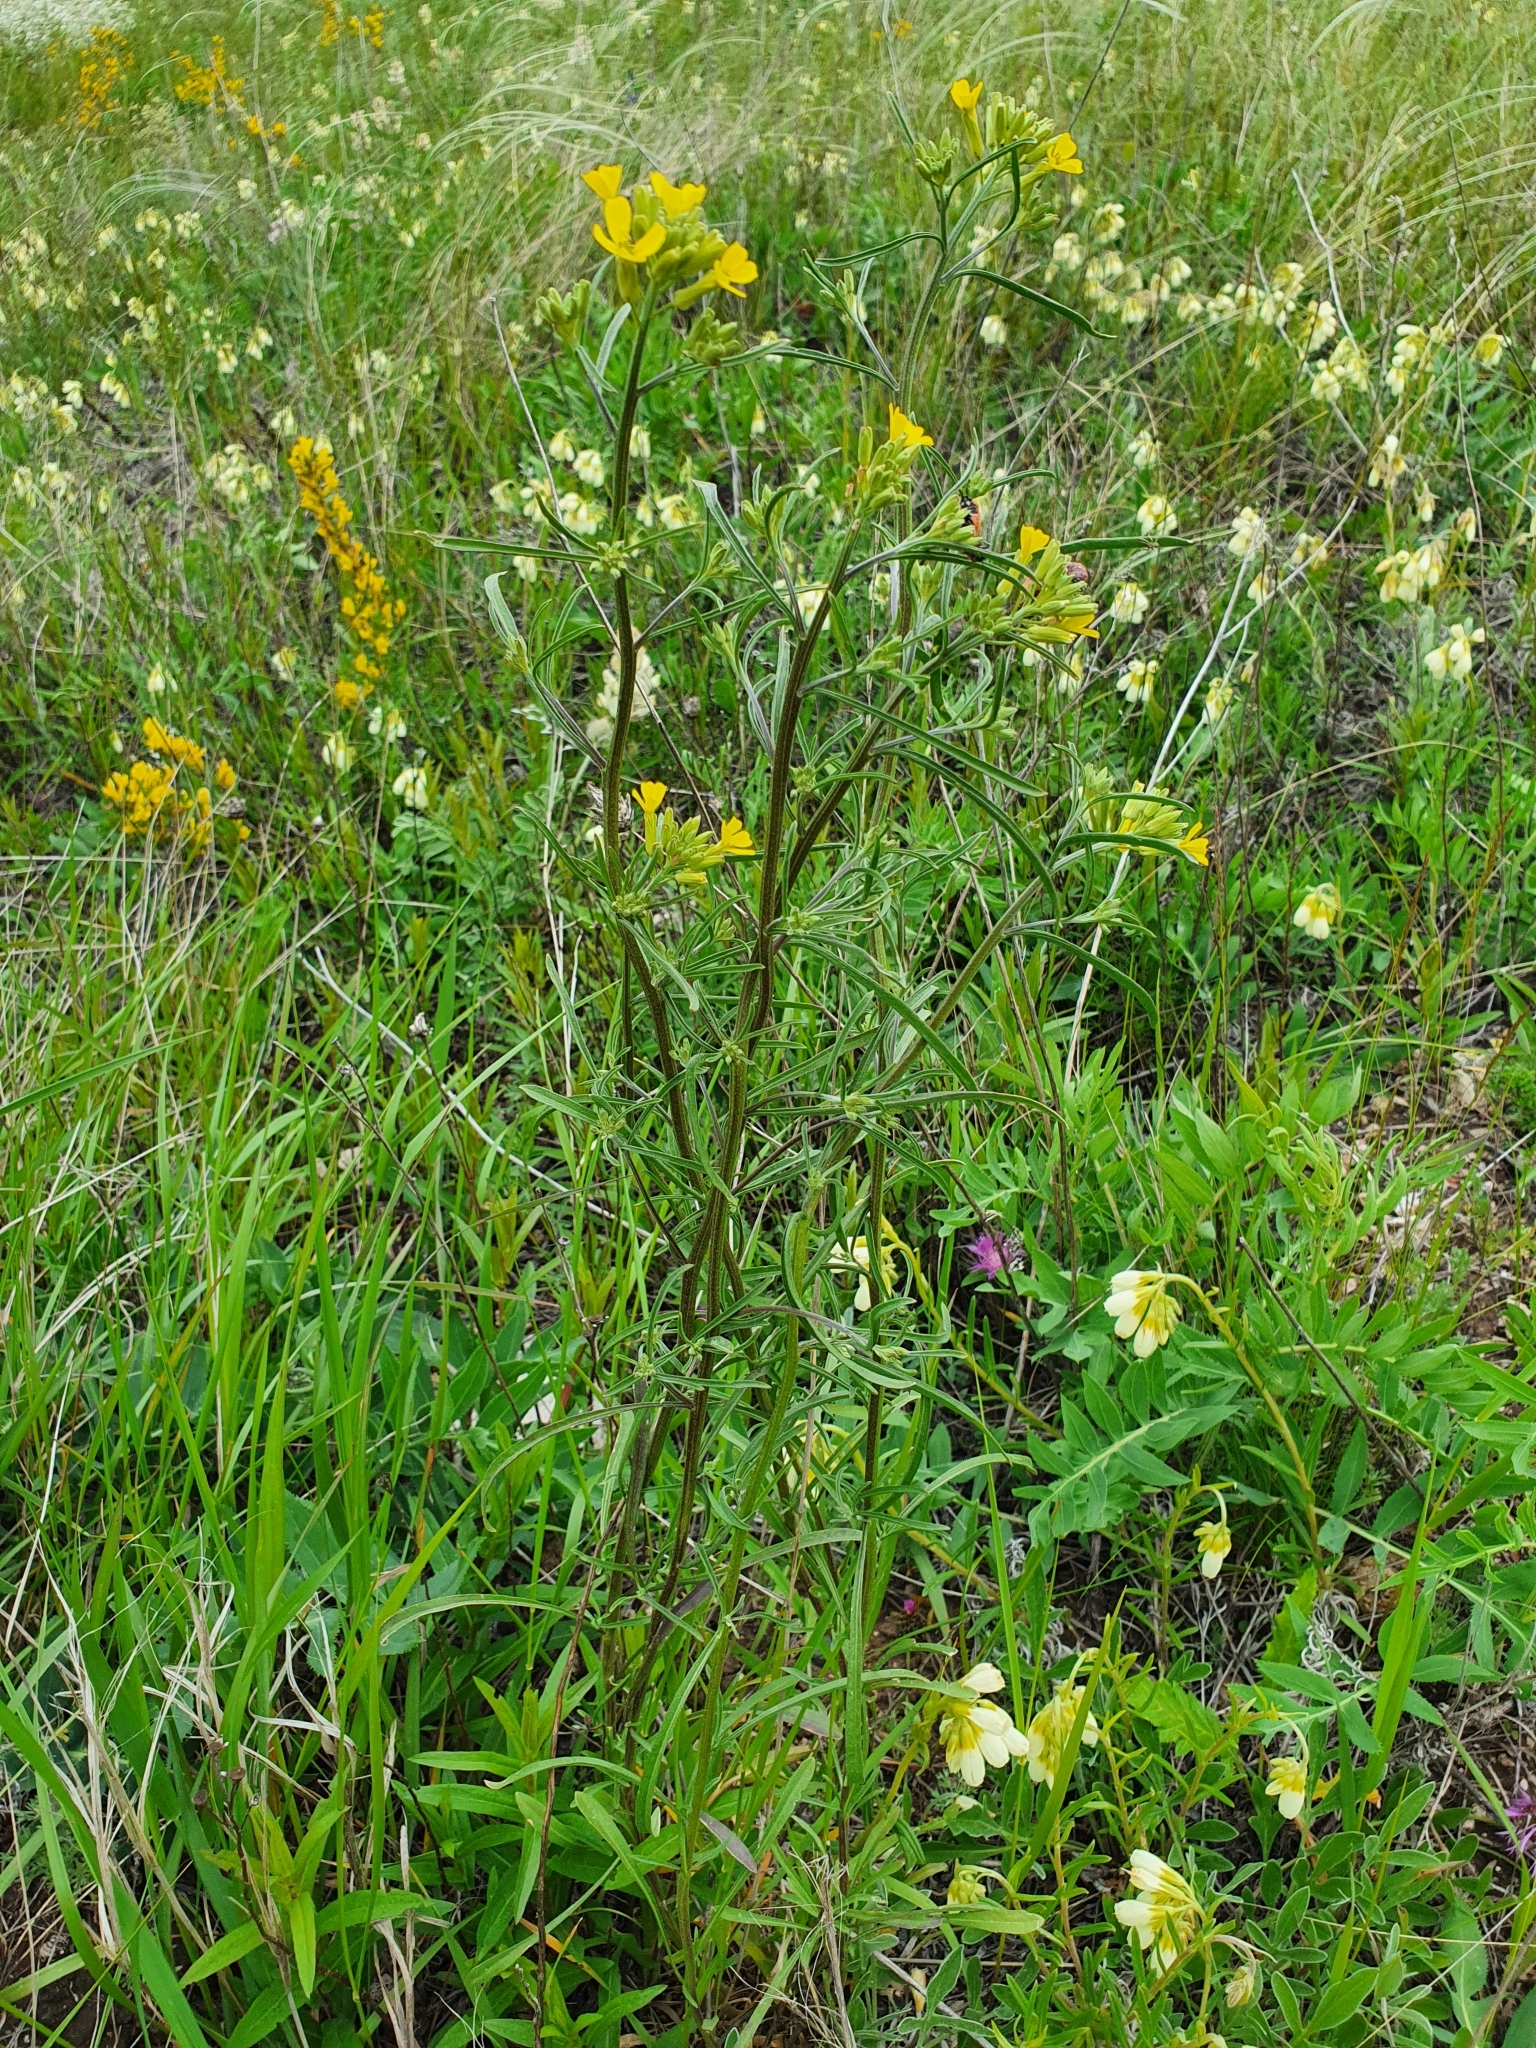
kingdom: Plantae
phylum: Tracheophyta
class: Magnoliopsida
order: Brassicales
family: Brassicaceae
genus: Erysimum
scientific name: Erysimum diffusum
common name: Diffuse wallflower
